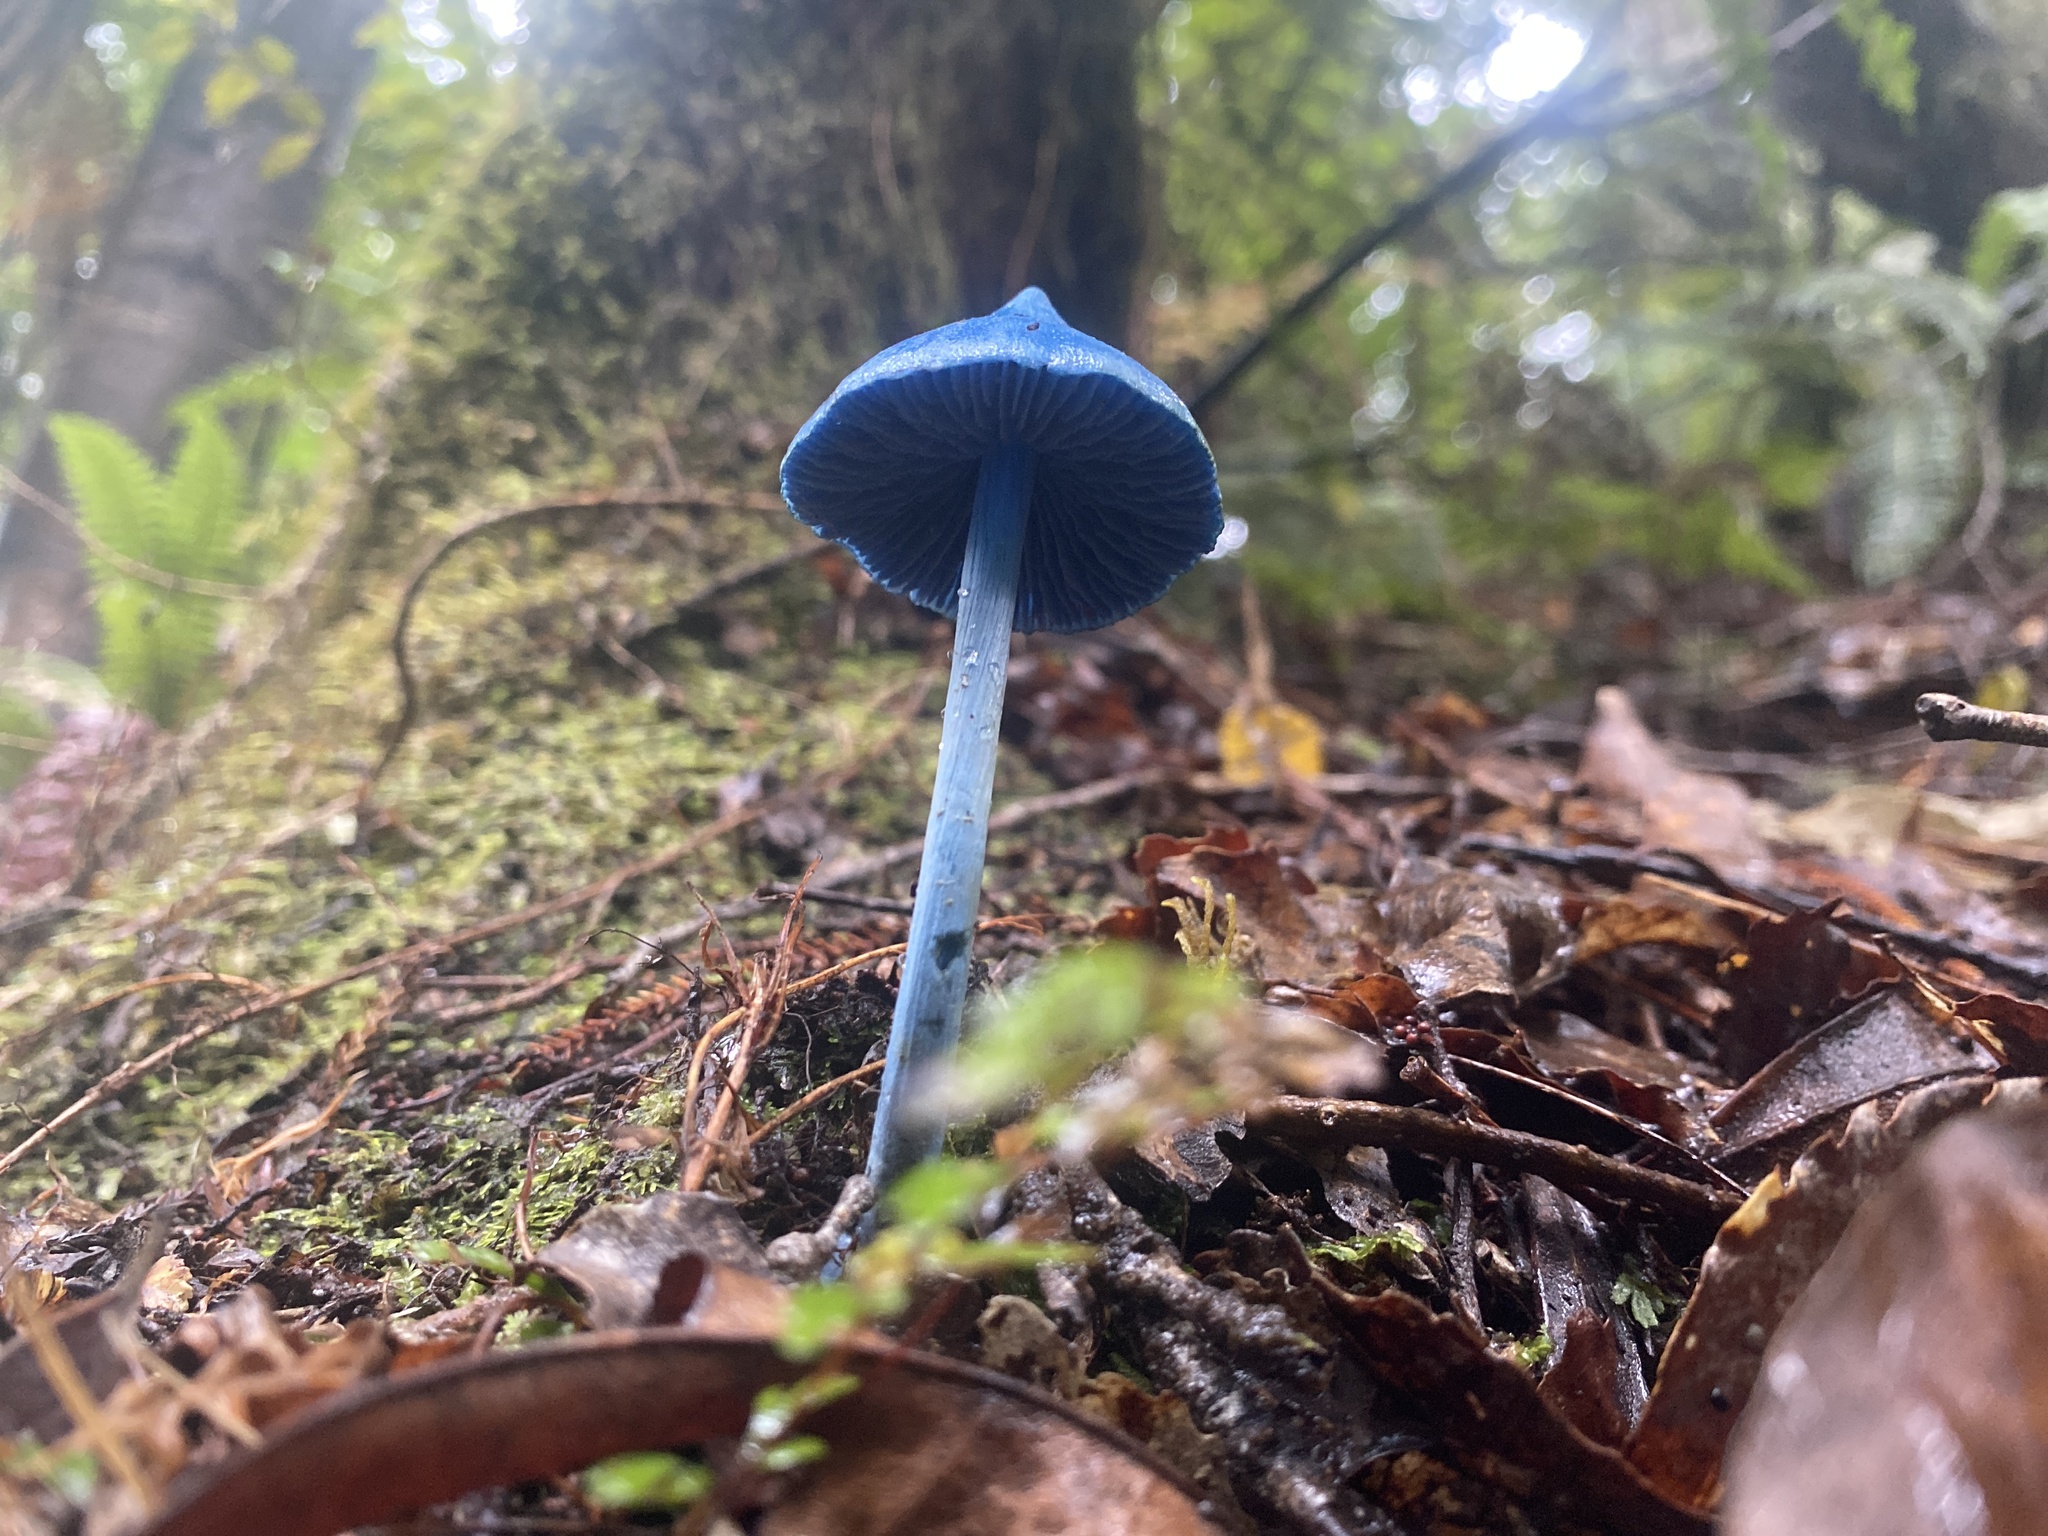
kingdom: Fungi
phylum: Basidiomycota
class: Agaricomycetes
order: Agaricales
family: Entolomataceae
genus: Entoloma
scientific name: Entoloma hochstetteri
